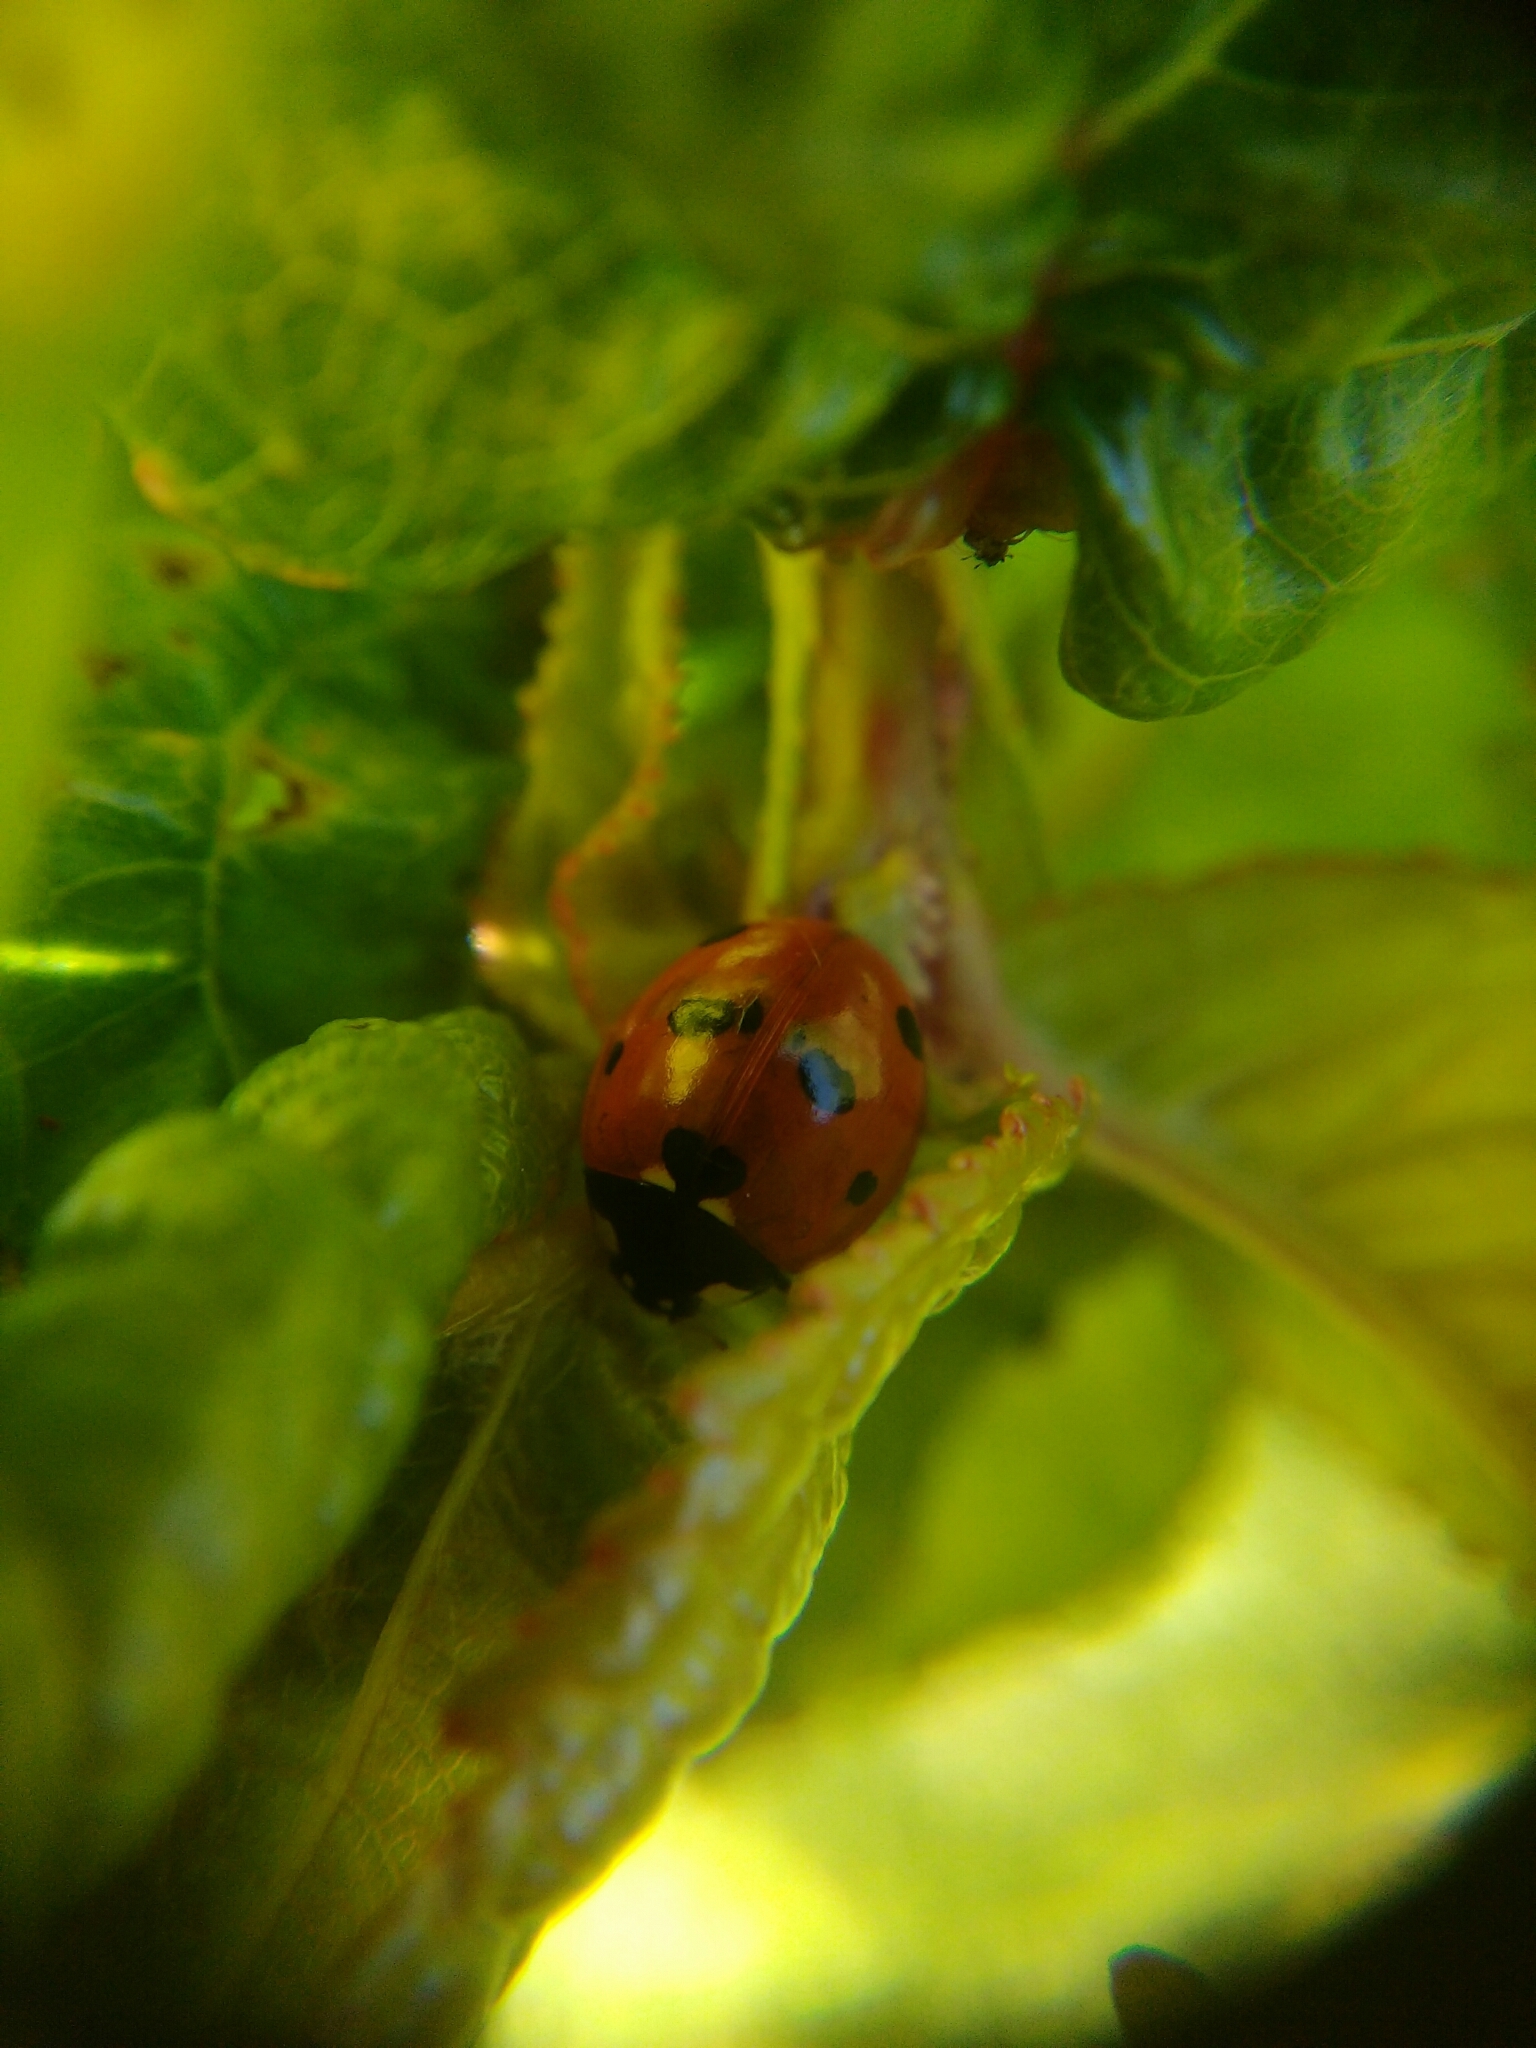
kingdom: Animalia
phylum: Arthropoda
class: Insecta
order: Coleoptera
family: Coccinellidae
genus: Coccinella
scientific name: Coccinella septempunctata
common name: Sevenspotted lady beetle
